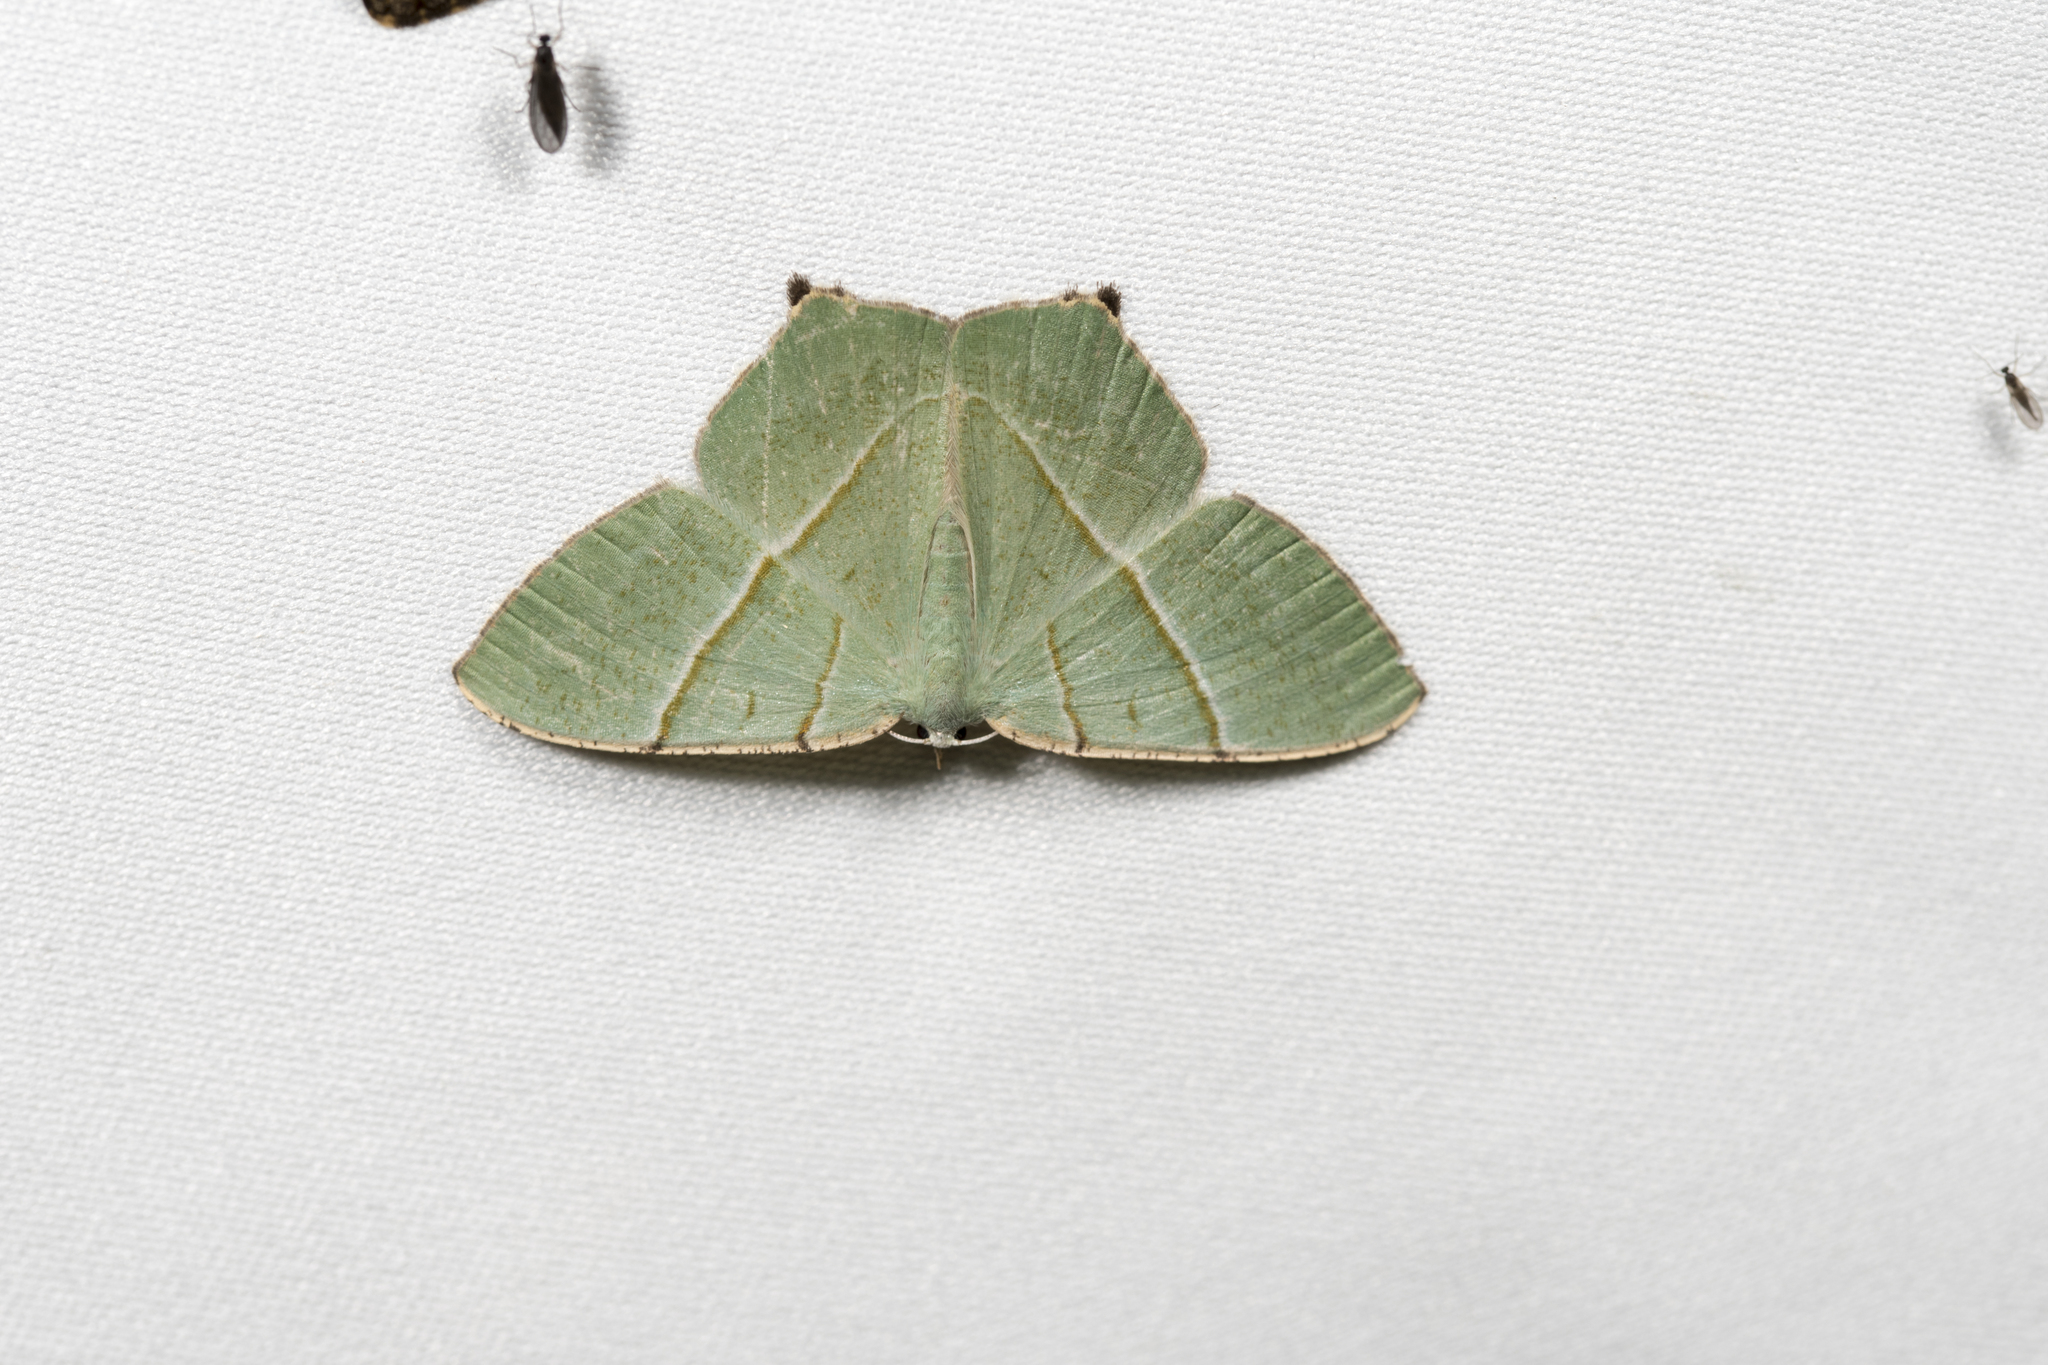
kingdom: Animalia
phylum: Arthropoda
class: Insecta
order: Lepidoptera
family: Geometridae
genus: Neohipparchus
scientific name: Neohipparchus vallata
